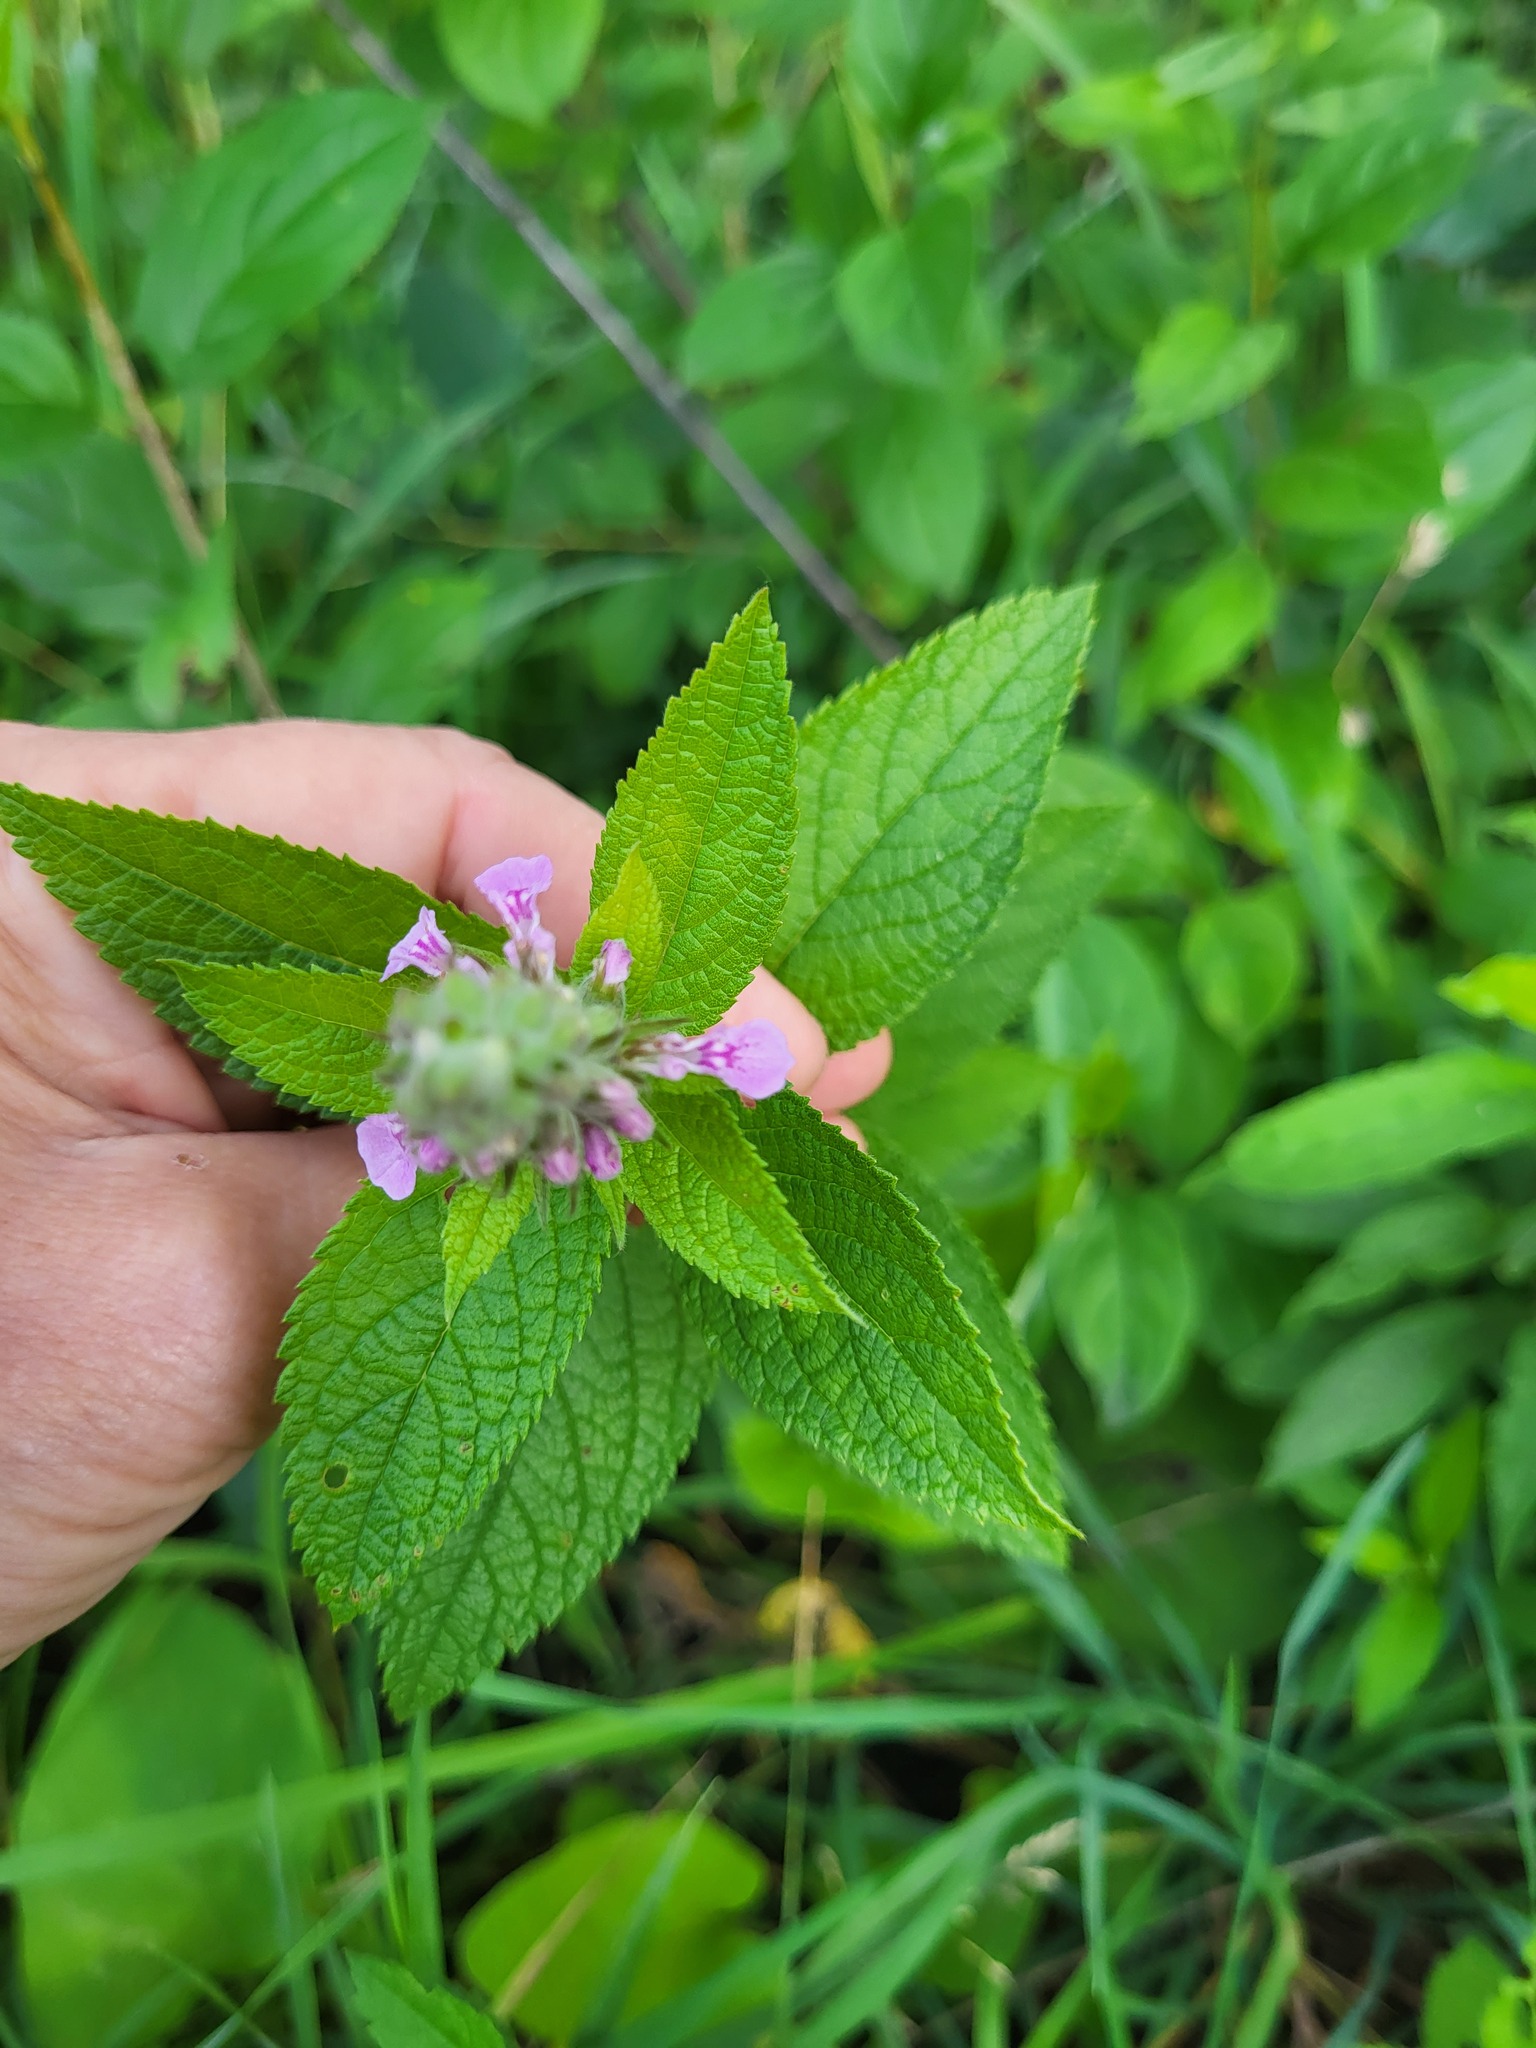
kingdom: Plantae
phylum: Tracheophyta
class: Magnoliopsida
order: Lamiales
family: Lamiaceae
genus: Teucrium
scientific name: Teucrium canadense
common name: American germander
